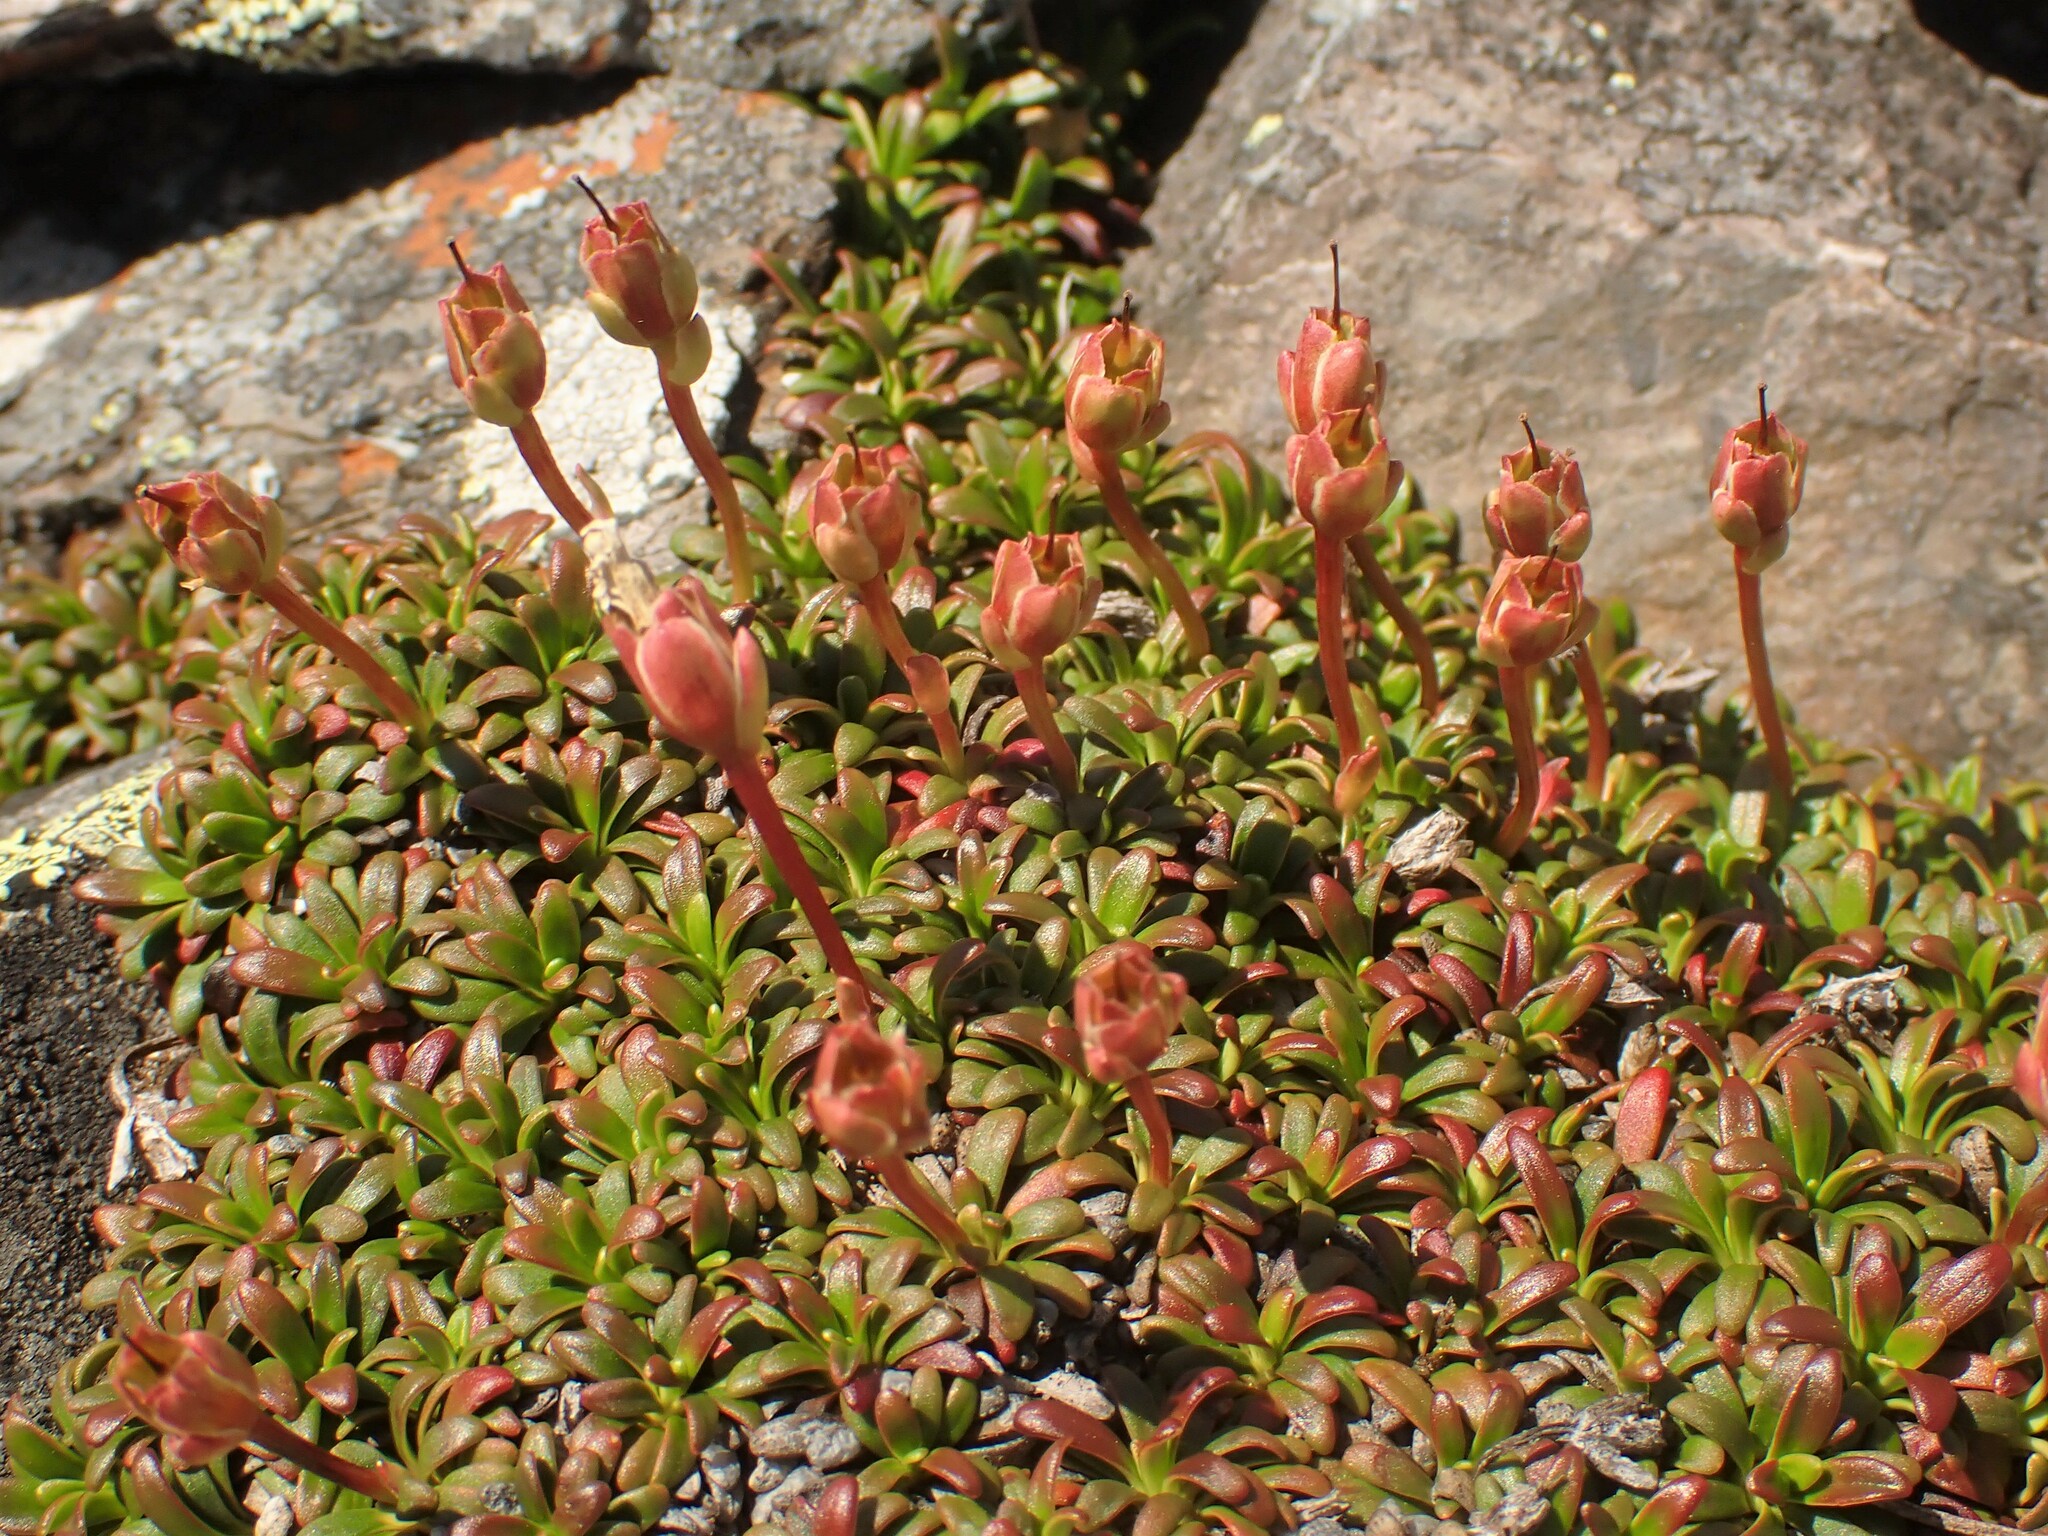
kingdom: Plantae
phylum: Tracheophyta
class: Magnoliopsida
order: Ericales
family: Diapensiaceae
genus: Diapensia
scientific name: Diapensia lapponica
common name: Diapensia
